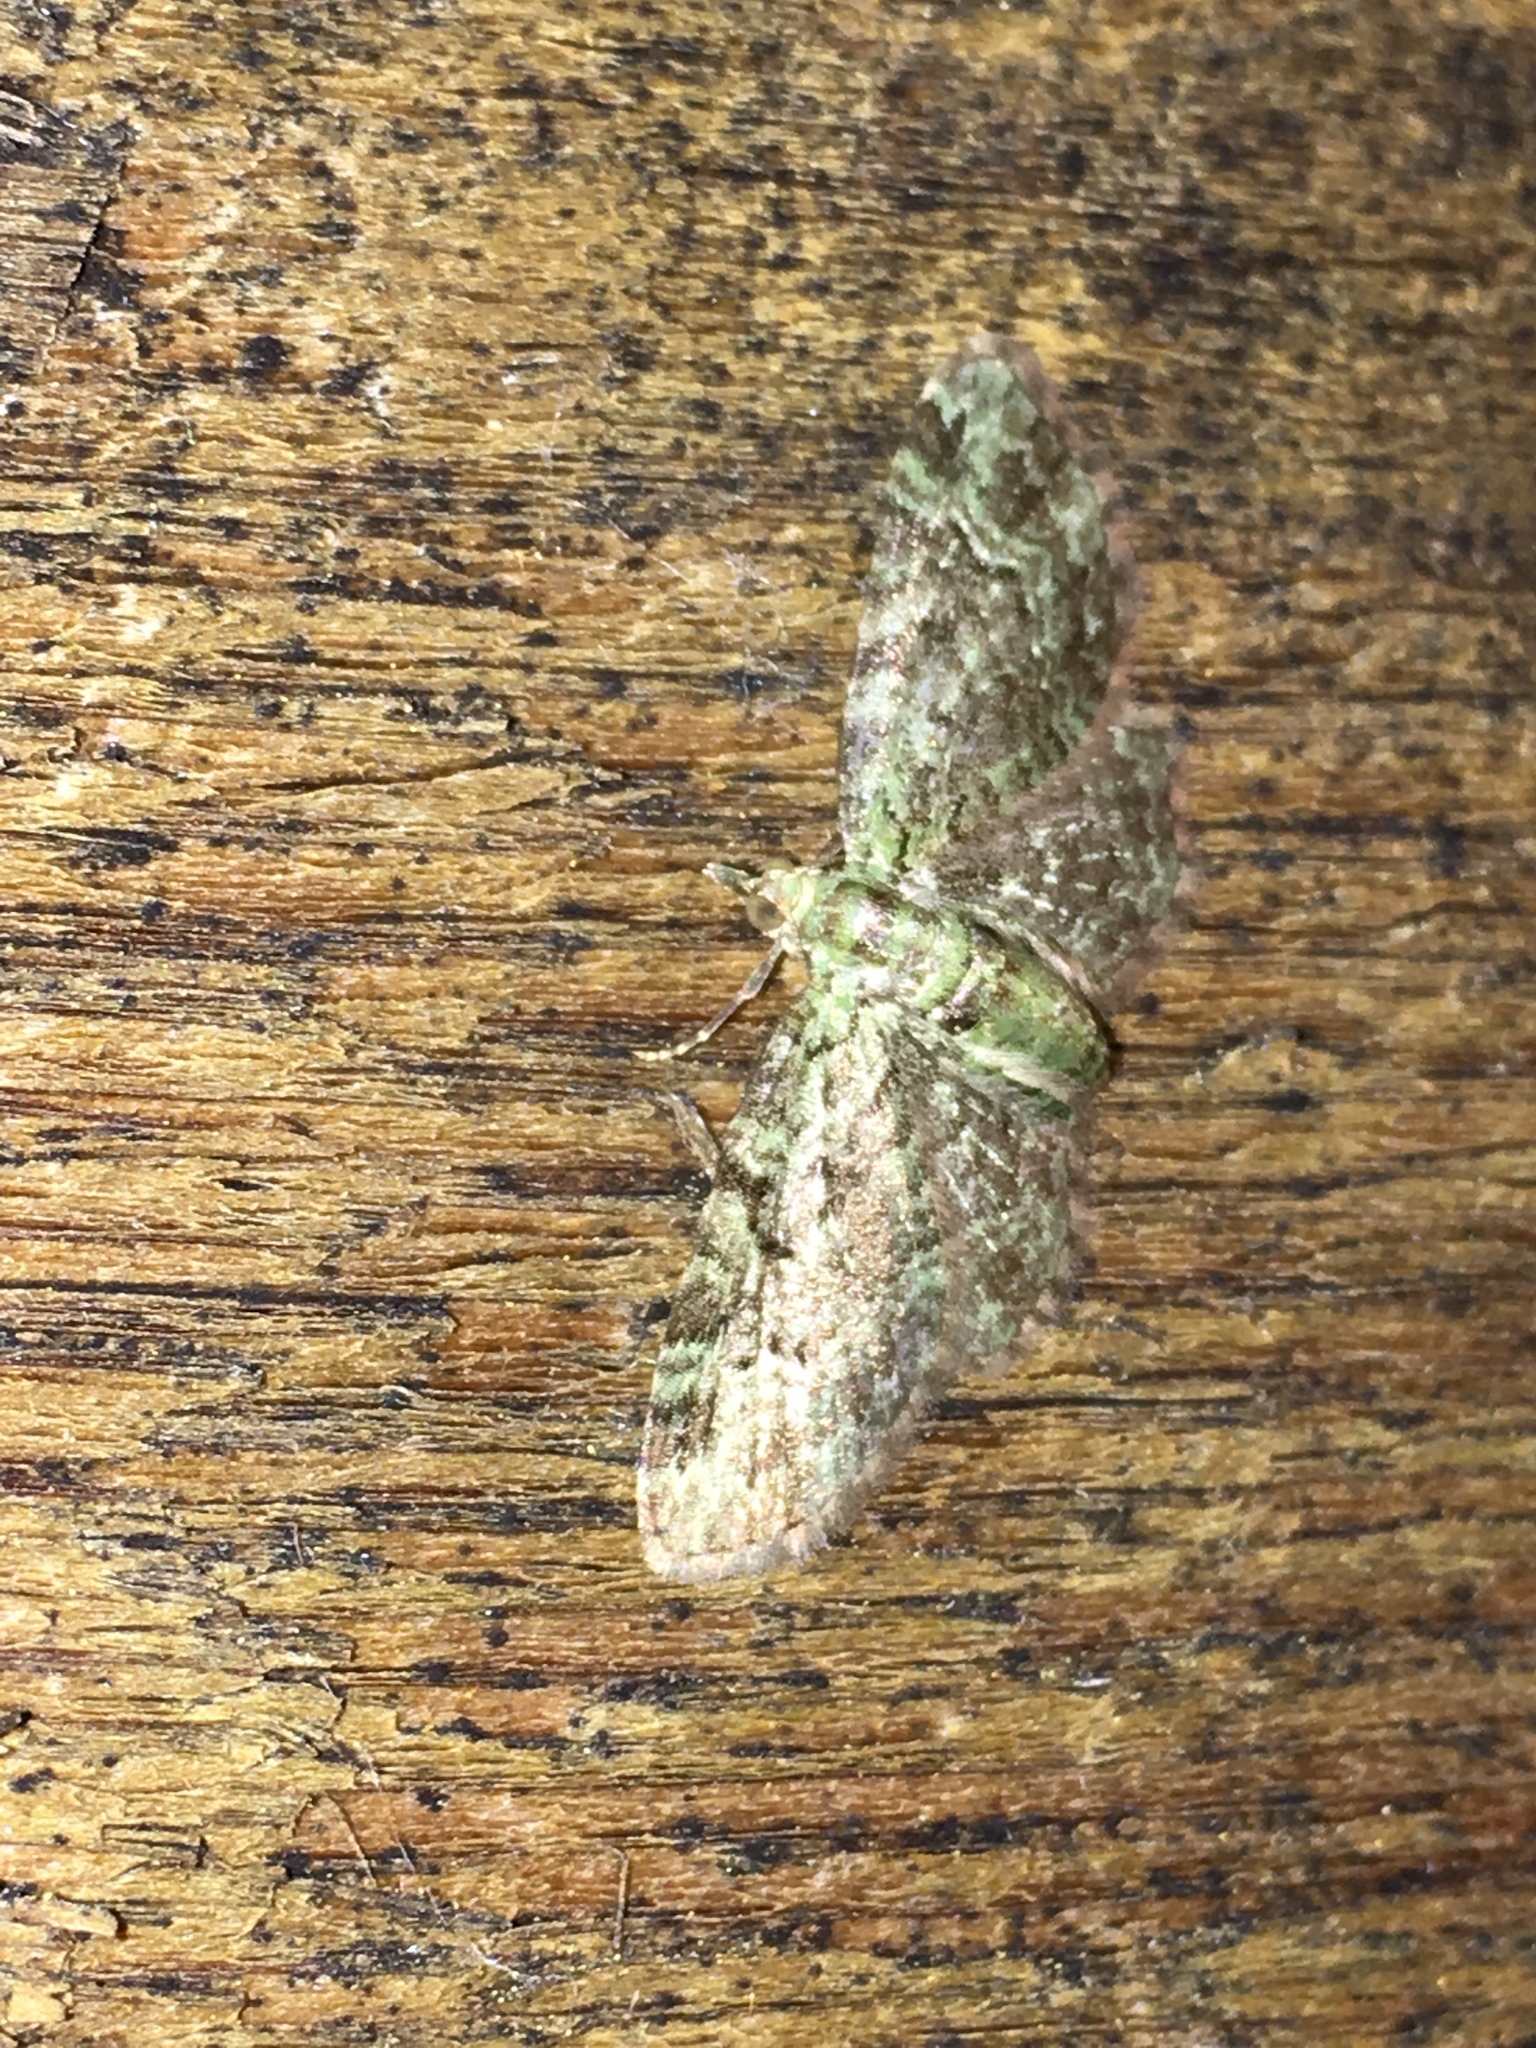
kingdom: Animalia
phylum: Arthropoda
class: Insecta
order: Lepidoptera
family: Geometridae
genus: Pasiphila
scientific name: Pasiphila rectangulata
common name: Green pug
